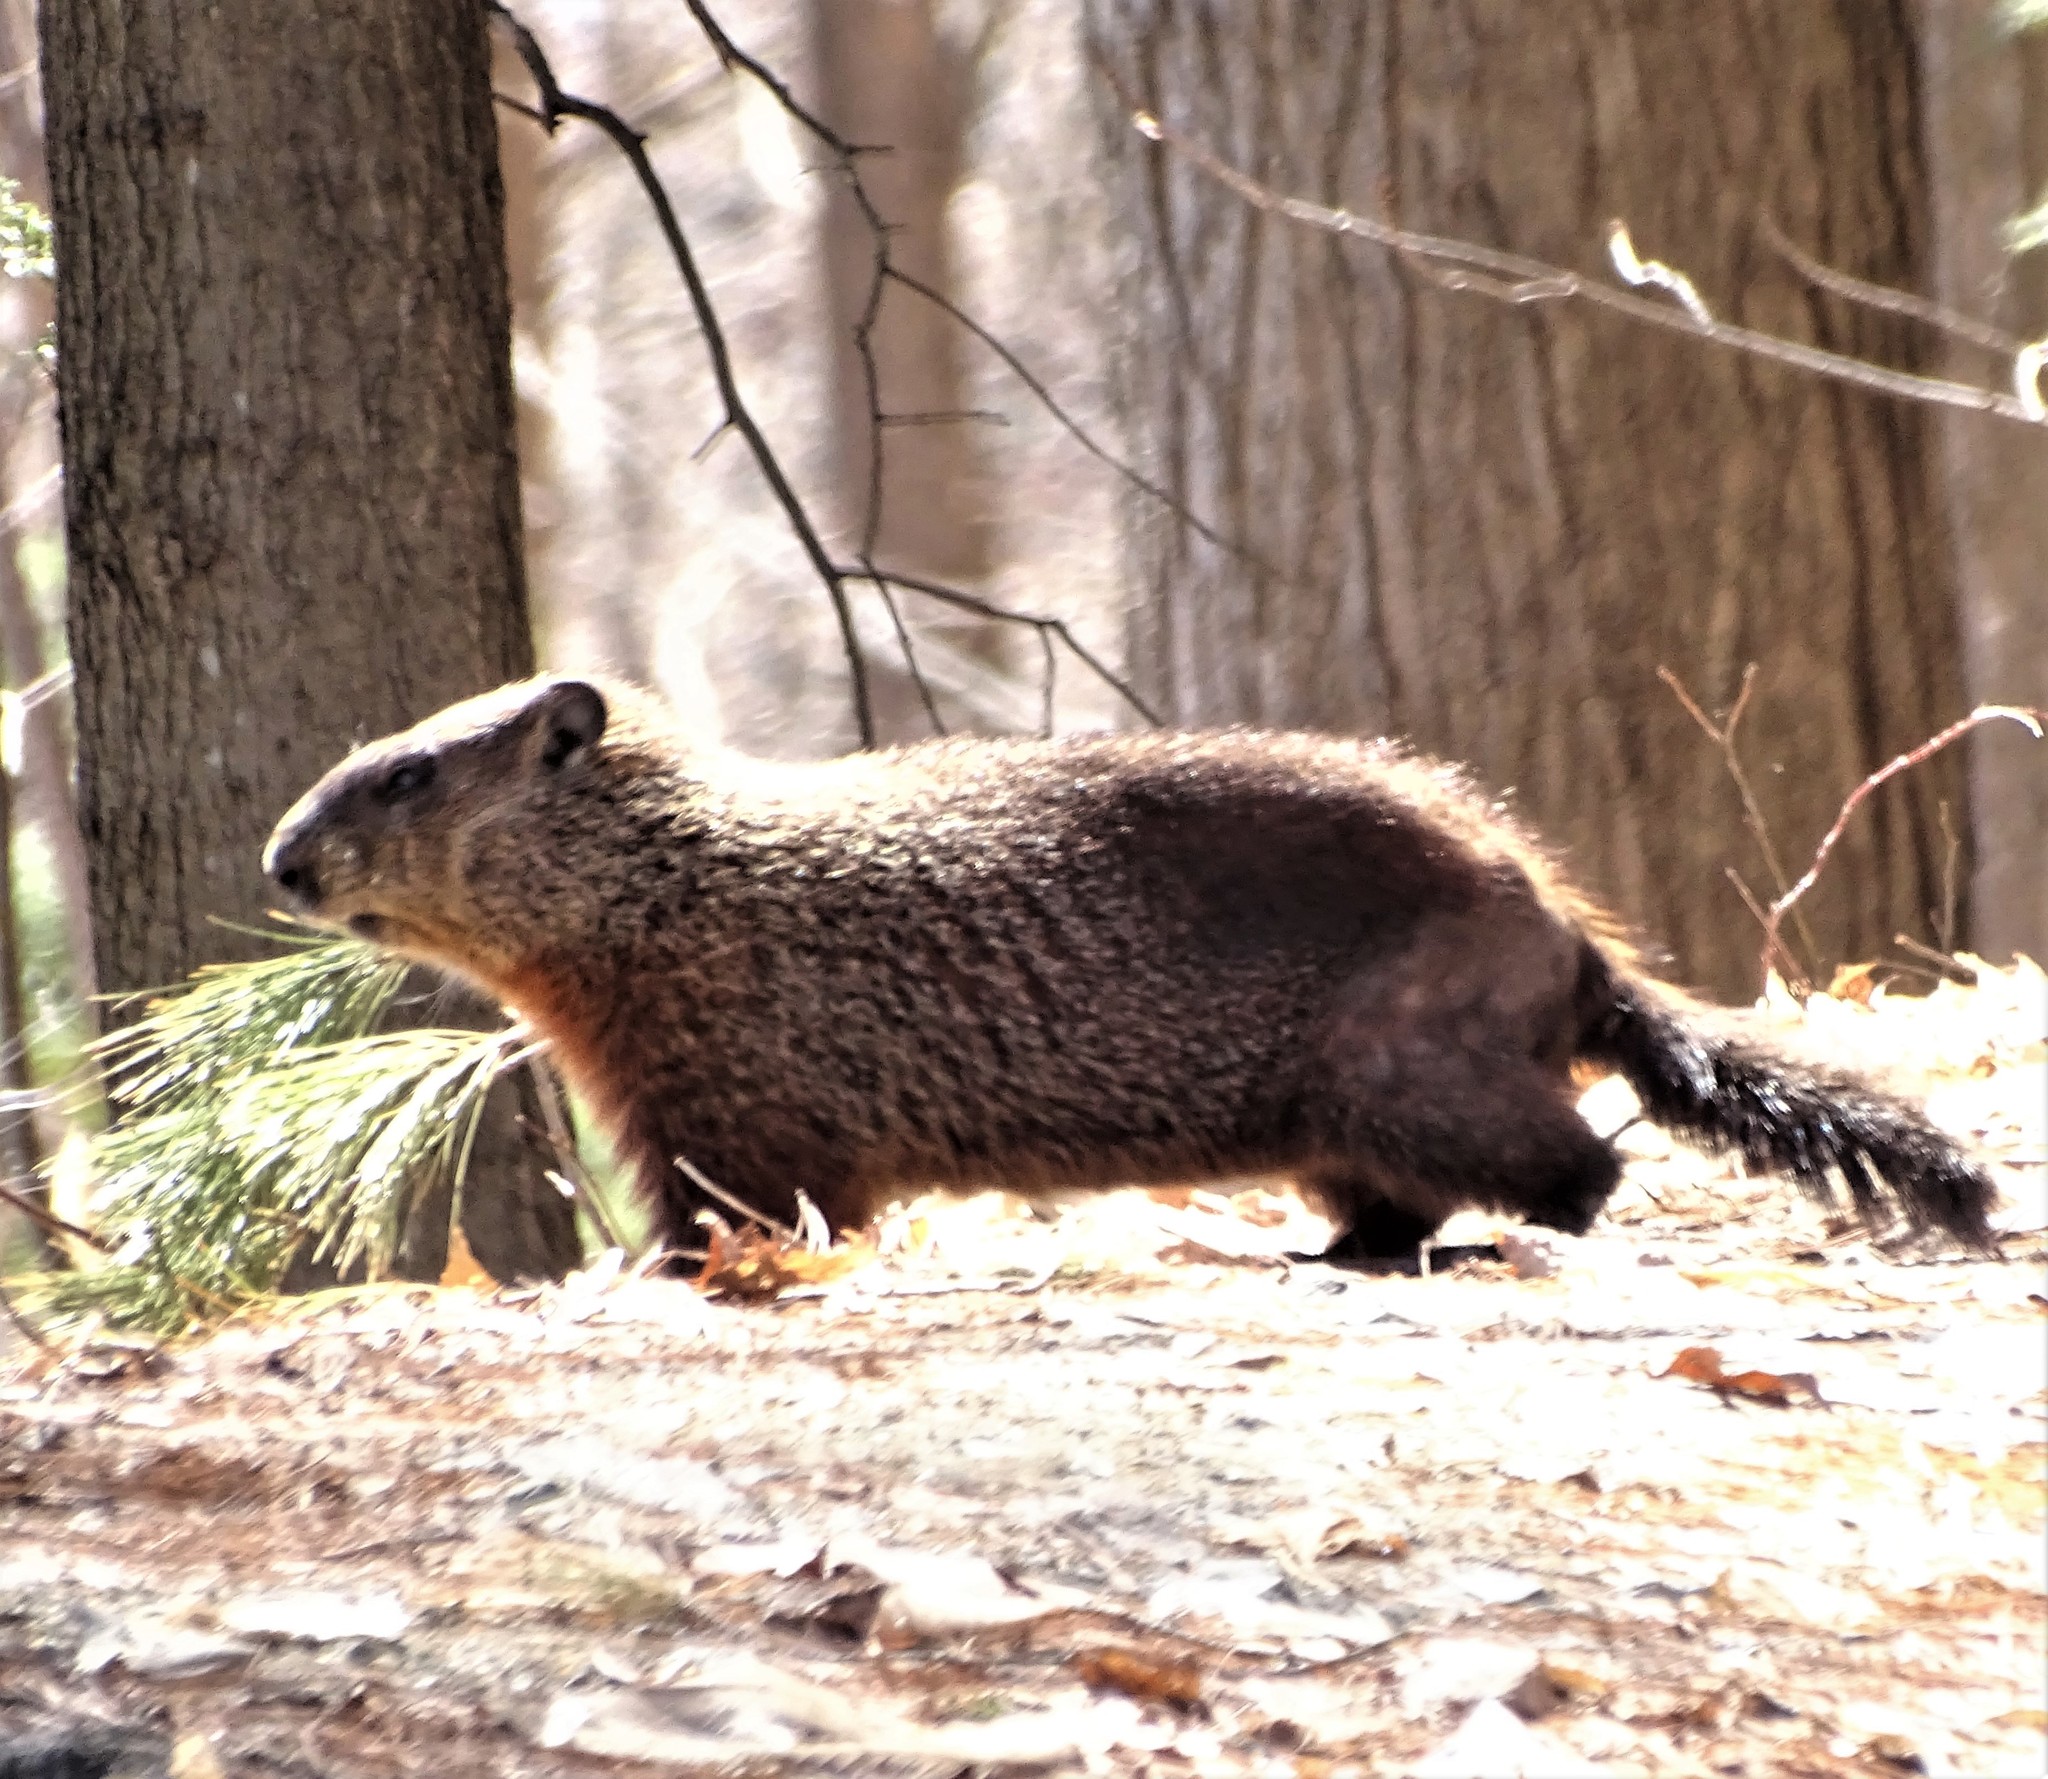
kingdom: Animalia
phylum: Chordata
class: Mammalia
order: Rodentia
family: Sciuridae
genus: Marmota
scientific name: Marmota monax
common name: Groundhog
